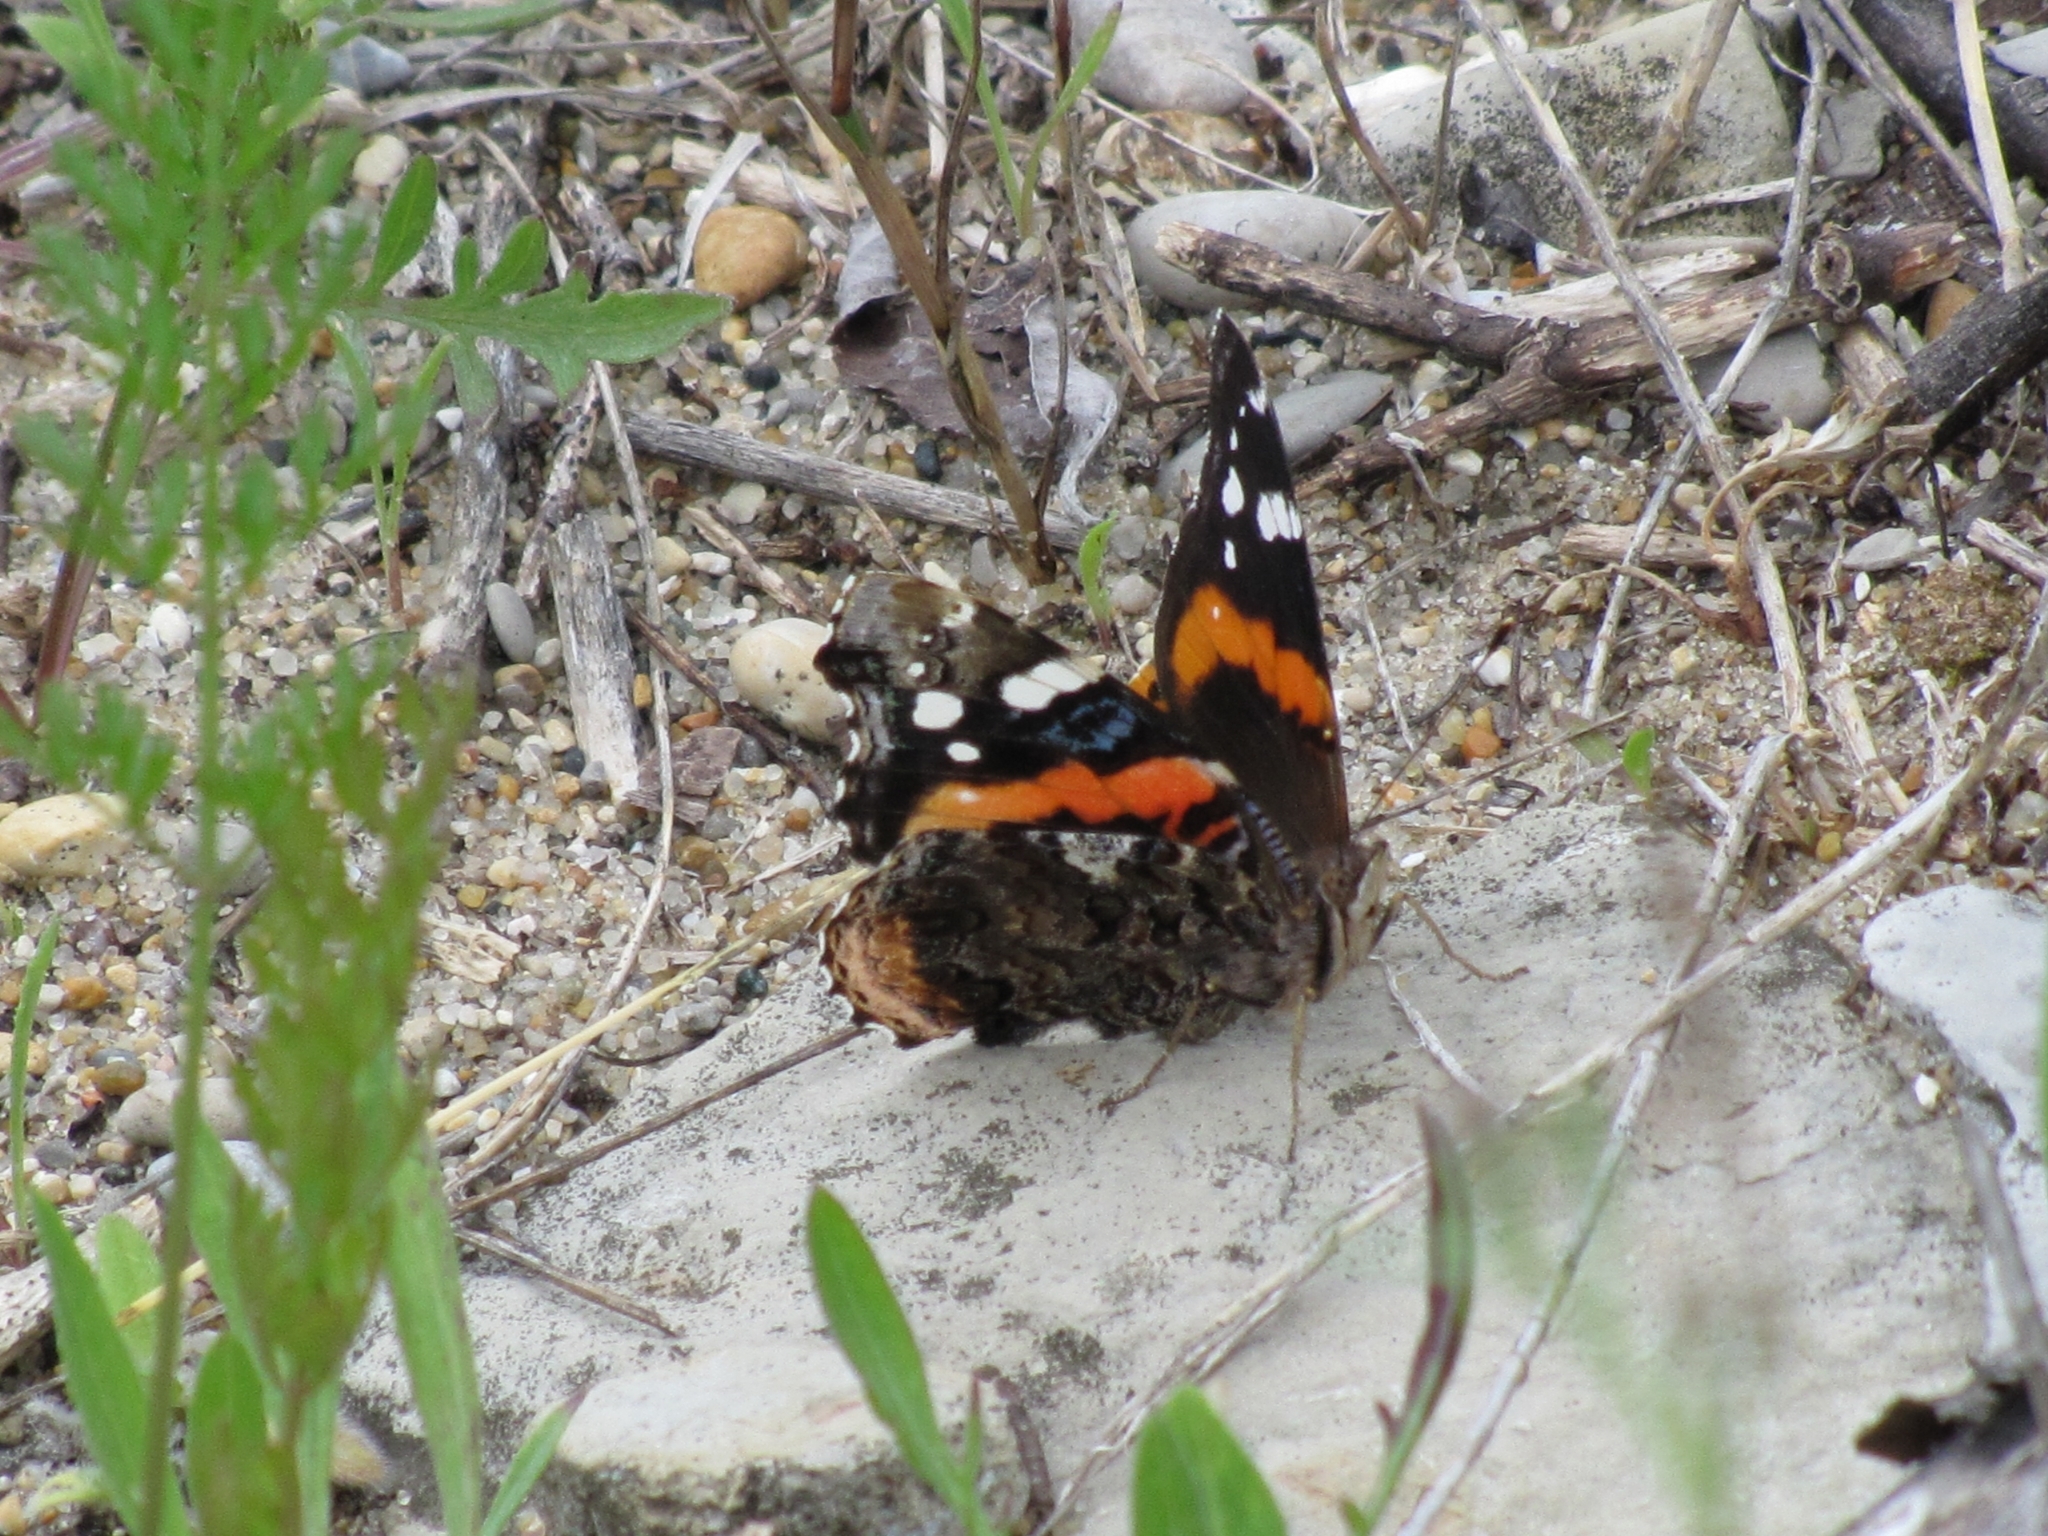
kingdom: Animalia
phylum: Arthropoda
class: Insecta
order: Lepidoptera
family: Nymphalidae
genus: Vanessa
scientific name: Vanessa atalanta
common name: Red admiral
